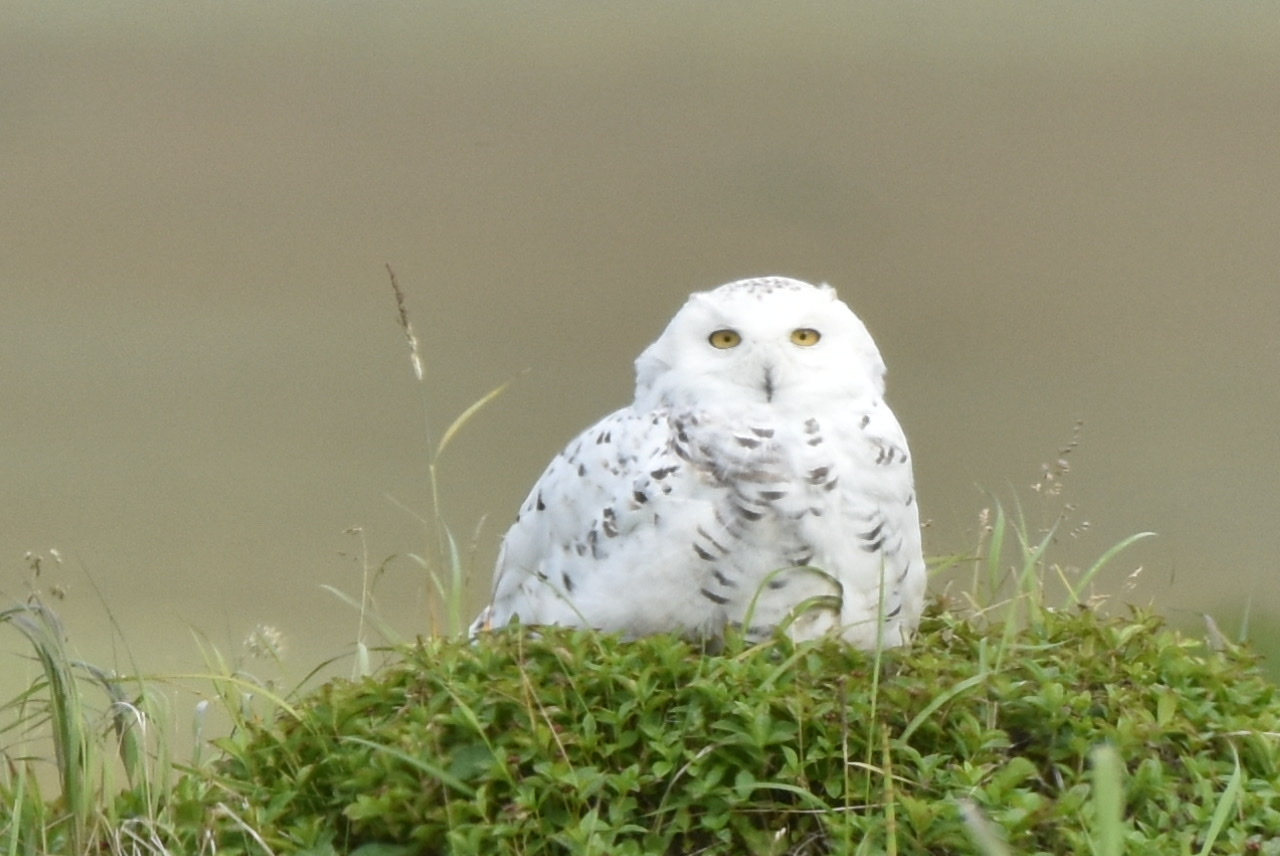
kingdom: Animalia
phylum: Chordata
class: Aves
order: Strigiformes
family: Strigidae
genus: Bubo
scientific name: Bubo scandiacus
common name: Snowy owl
